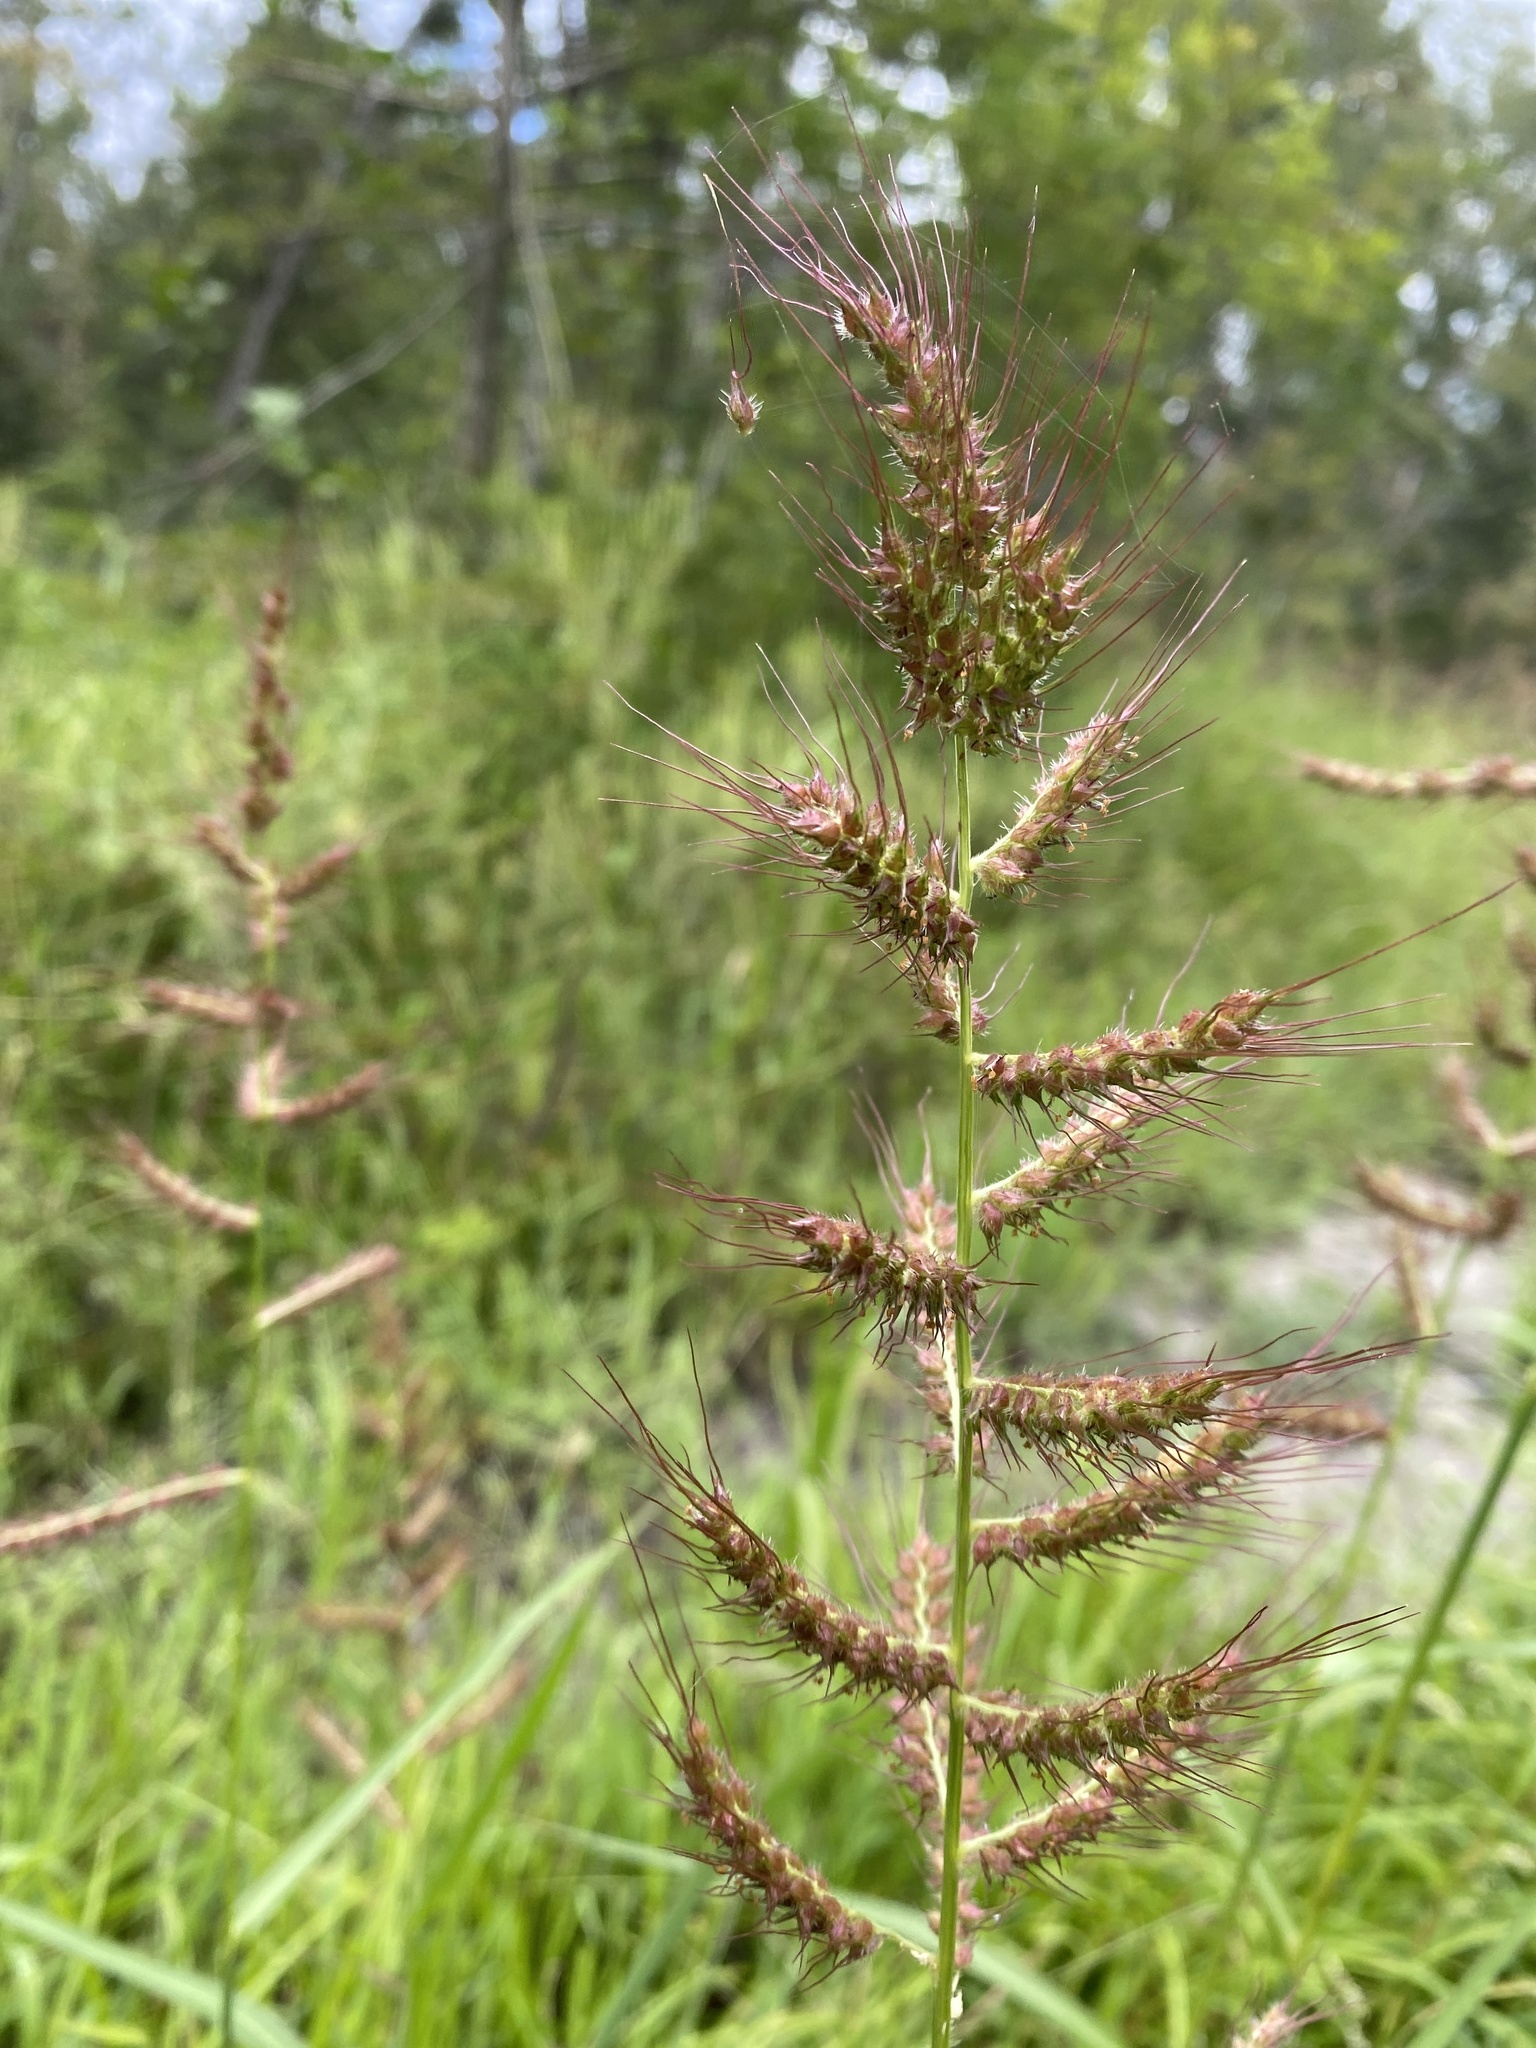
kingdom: Plantae
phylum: Tracheophyta
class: Liliopsida
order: Poales
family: Poaceae
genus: Echinochloa
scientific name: Echinochloa muricata
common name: American barnyard grass
